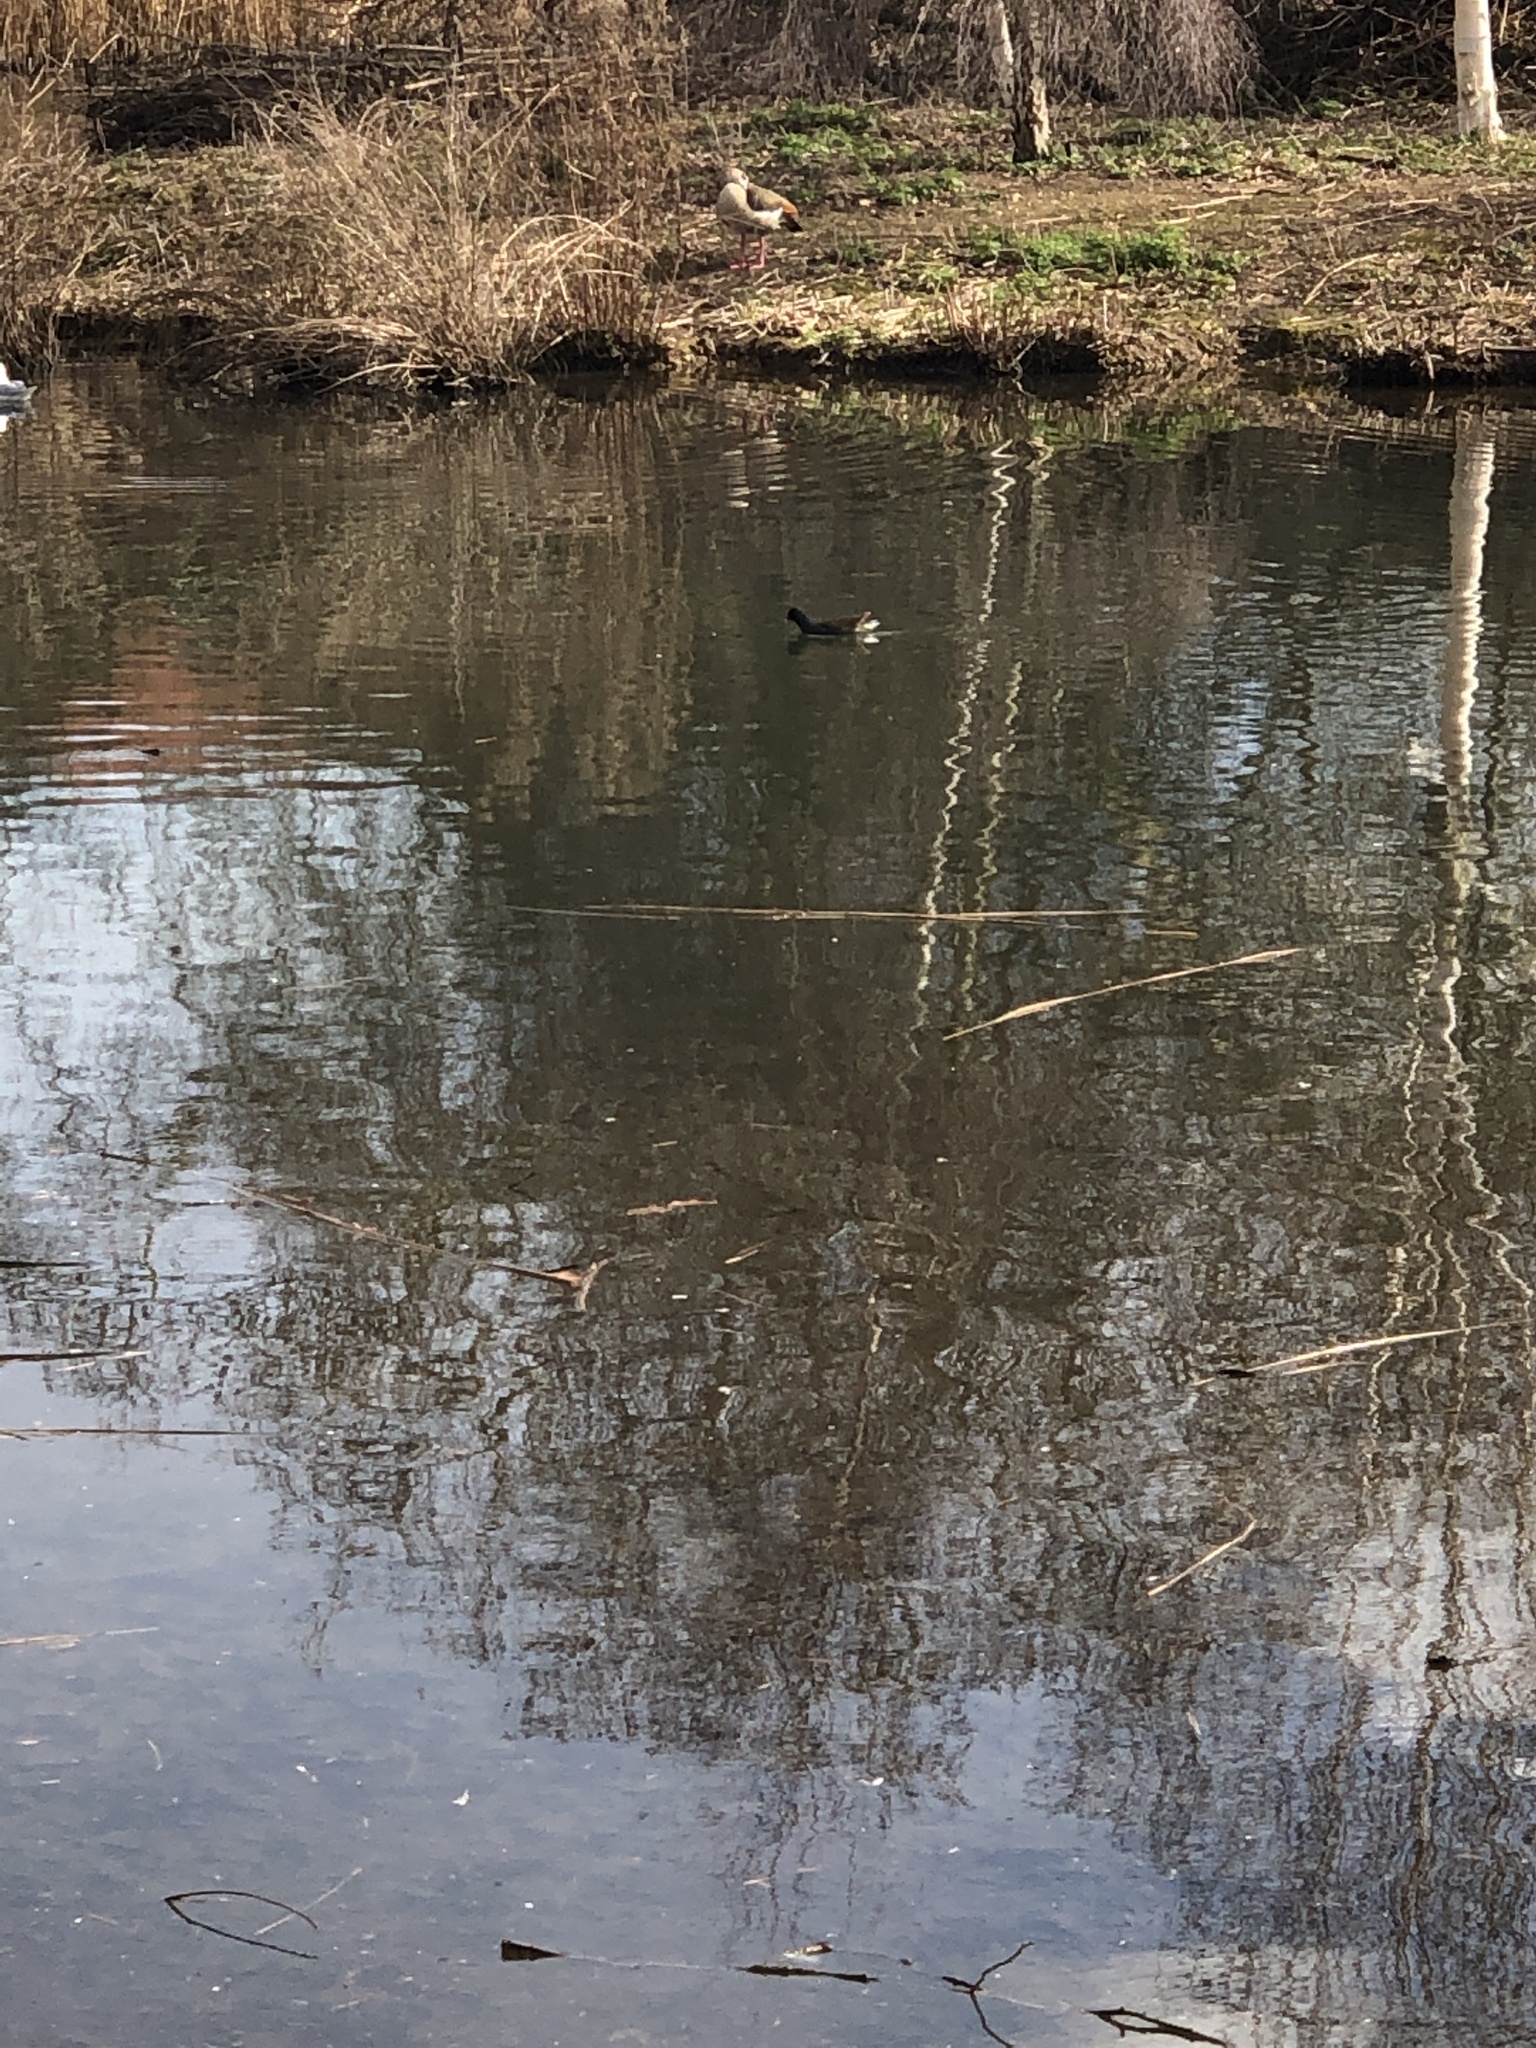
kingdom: Animalia
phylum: Chordata
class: Aves
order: Gruiformes
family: Rallidae
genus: Gallinula
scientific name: Gallinula chloropus
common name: Common moorhen
